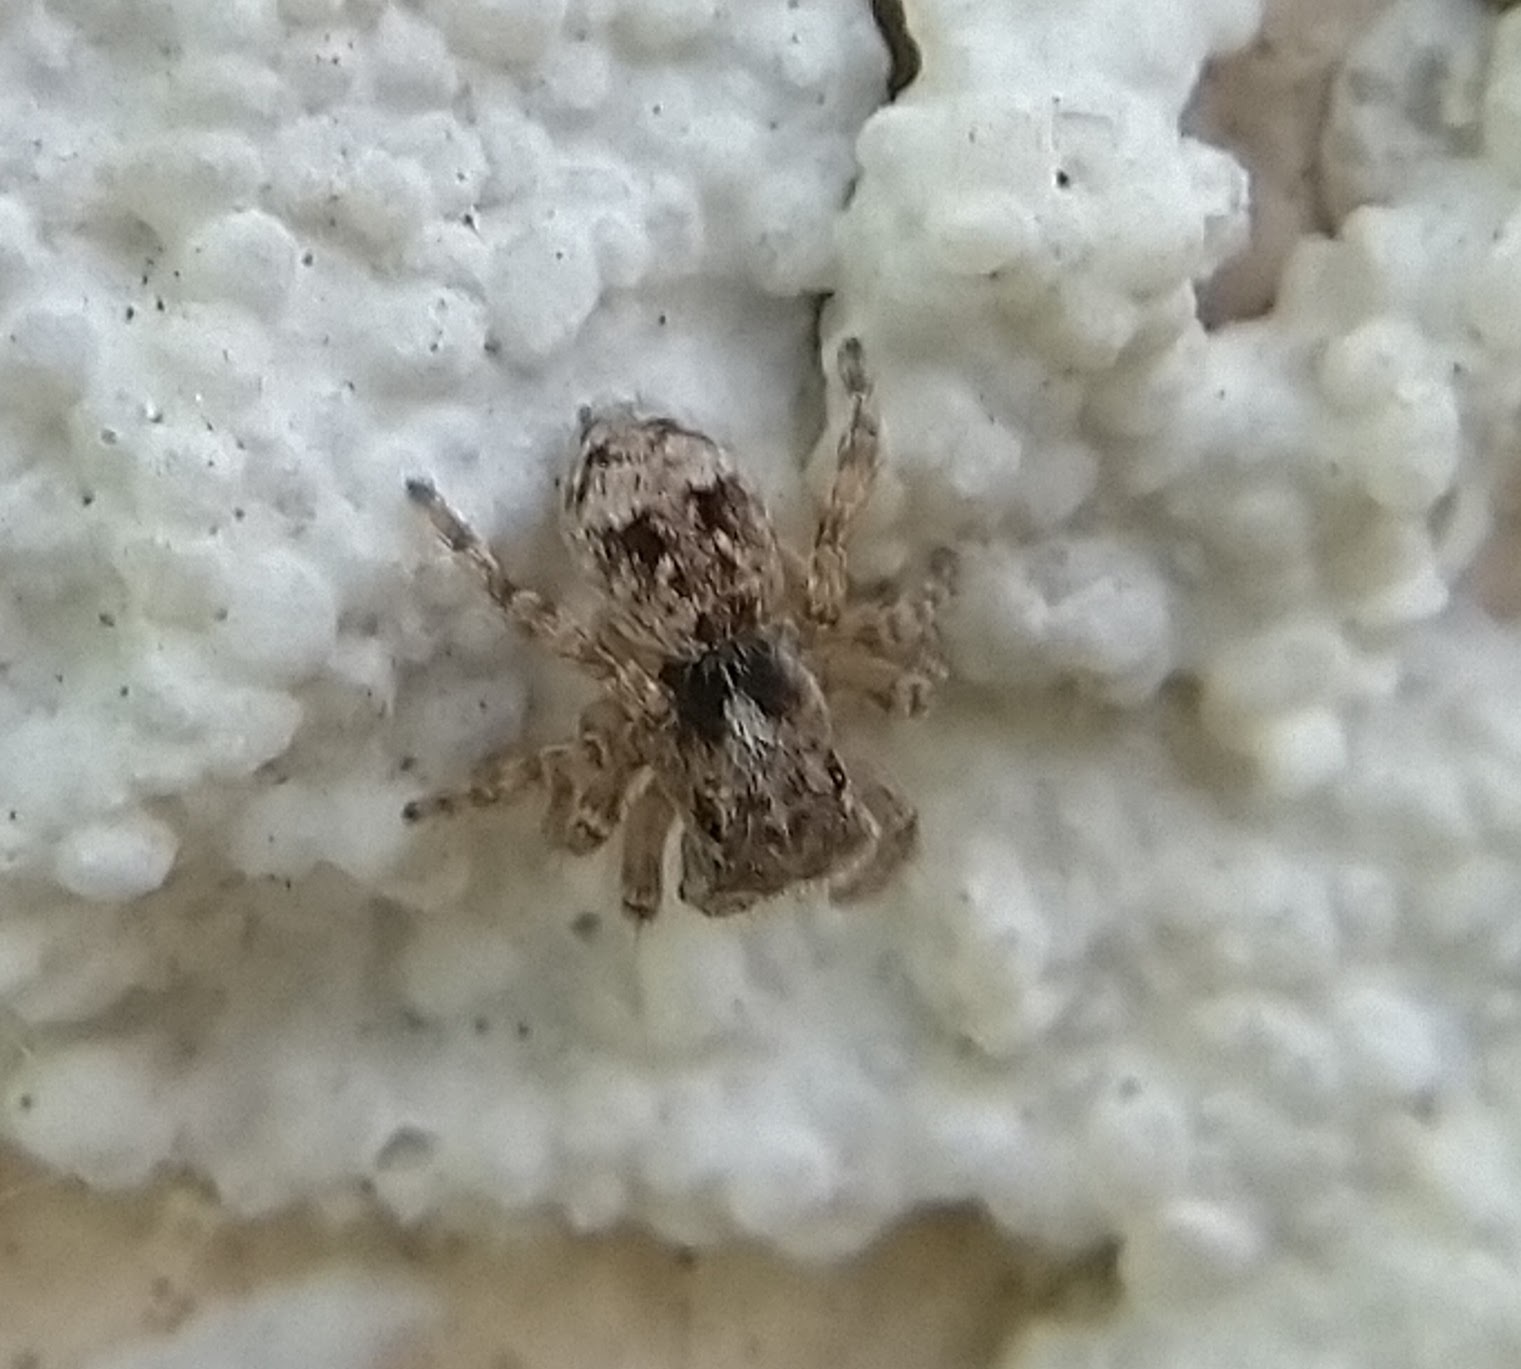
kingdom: Animalia
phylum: Arthropoda
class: Arachnida
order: Araneae
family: Salticidae
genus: Attulus
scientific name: Attulus fasciger
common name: Asiatic wall jumping spider
